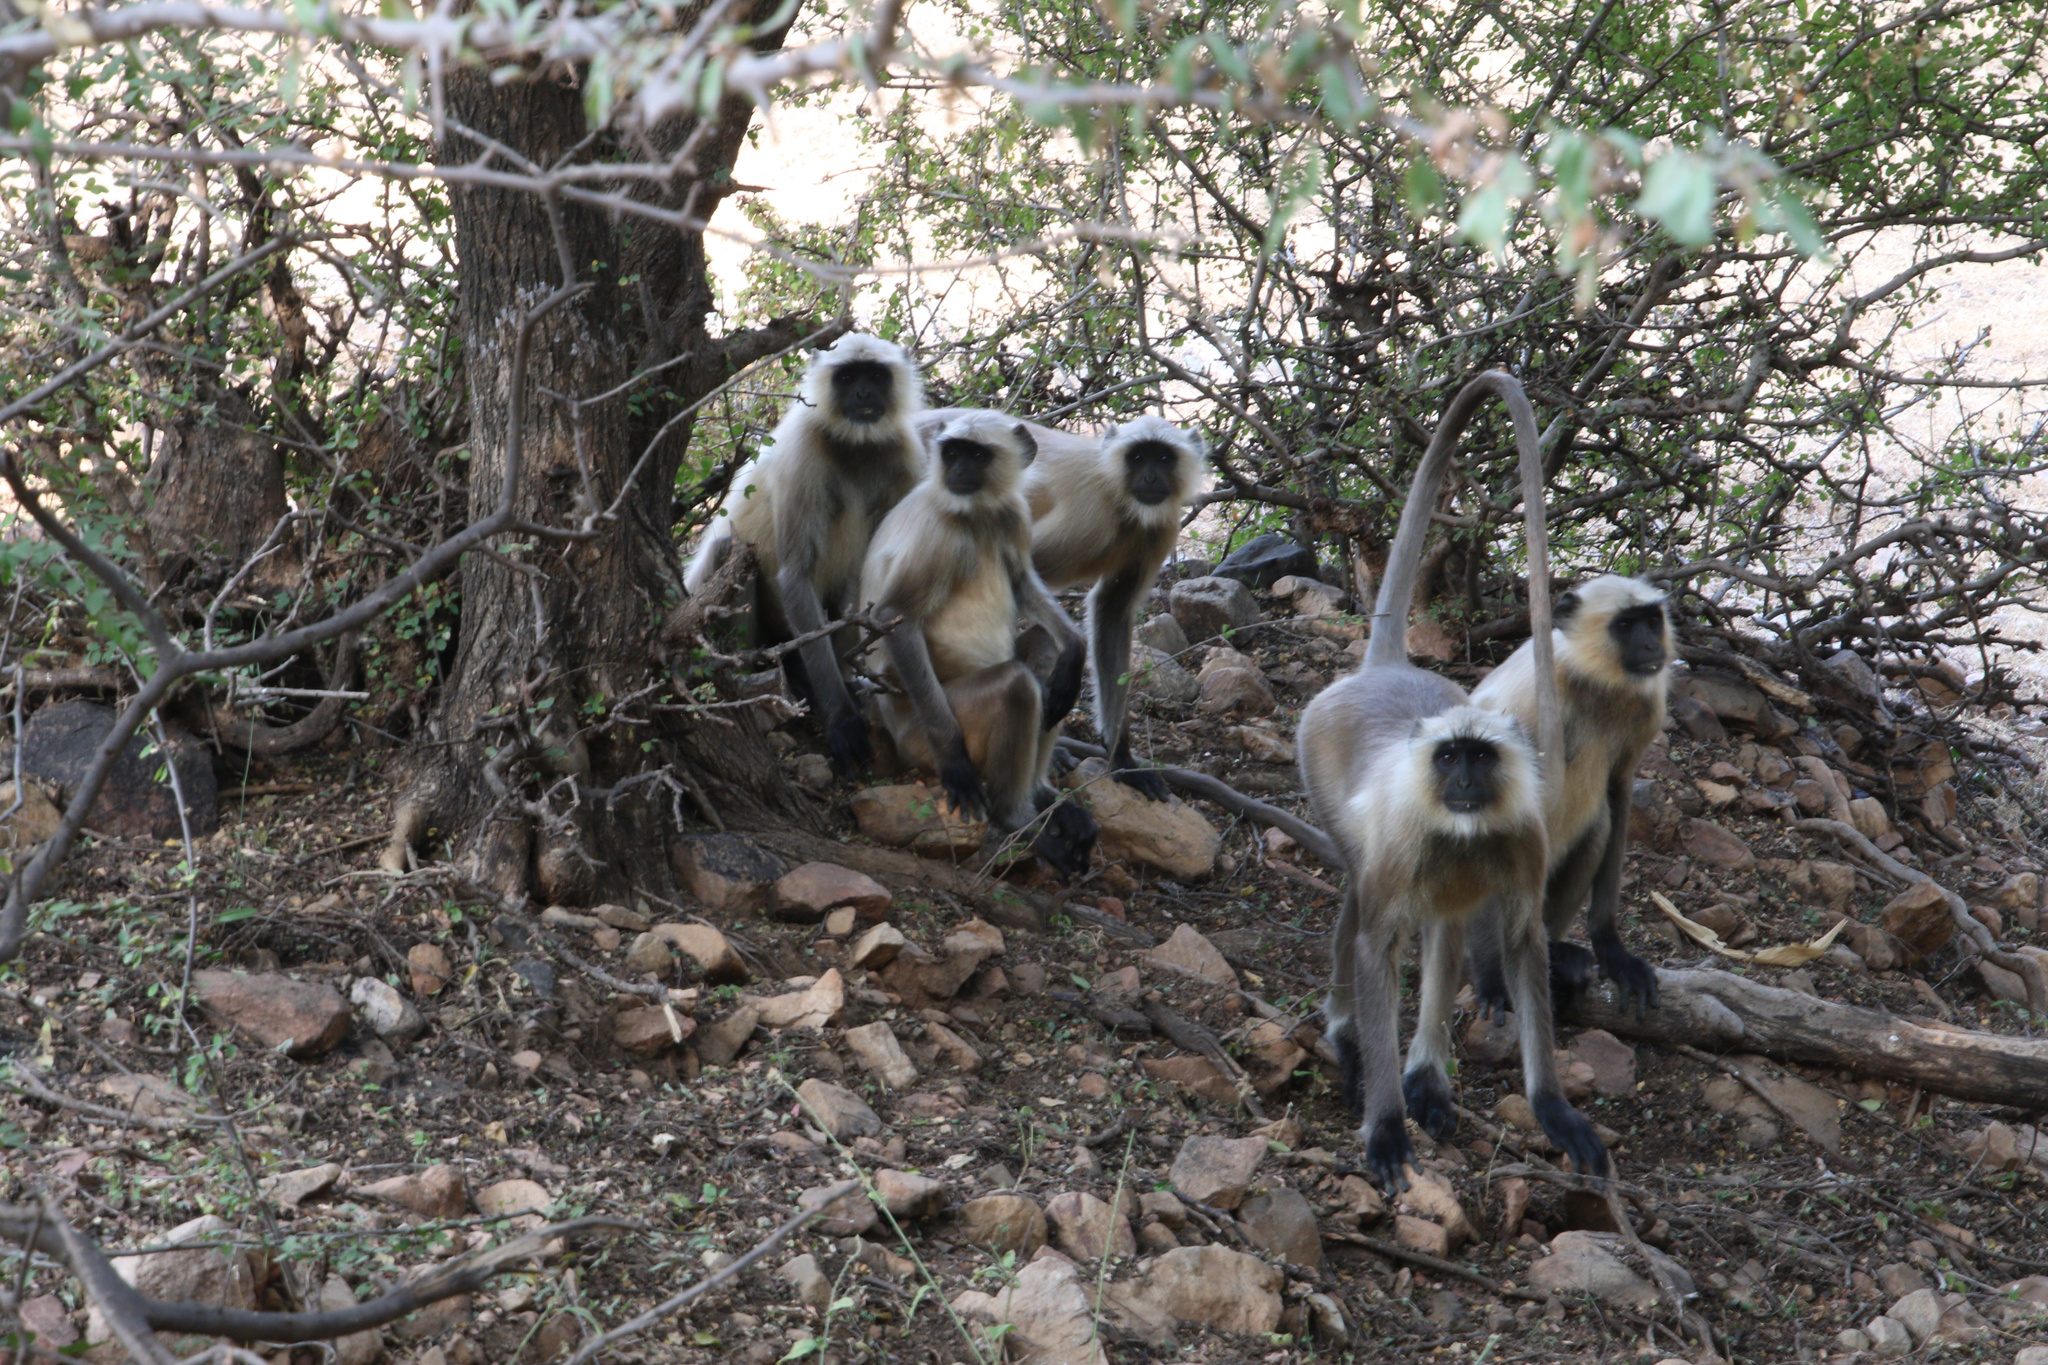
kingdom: Animalia
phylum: Chordata
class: Mammalia
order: Primates
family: Cercopithecidae
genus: Semnopithecus
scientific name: Semnopithecus entellus
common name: Northern plains gray langur
